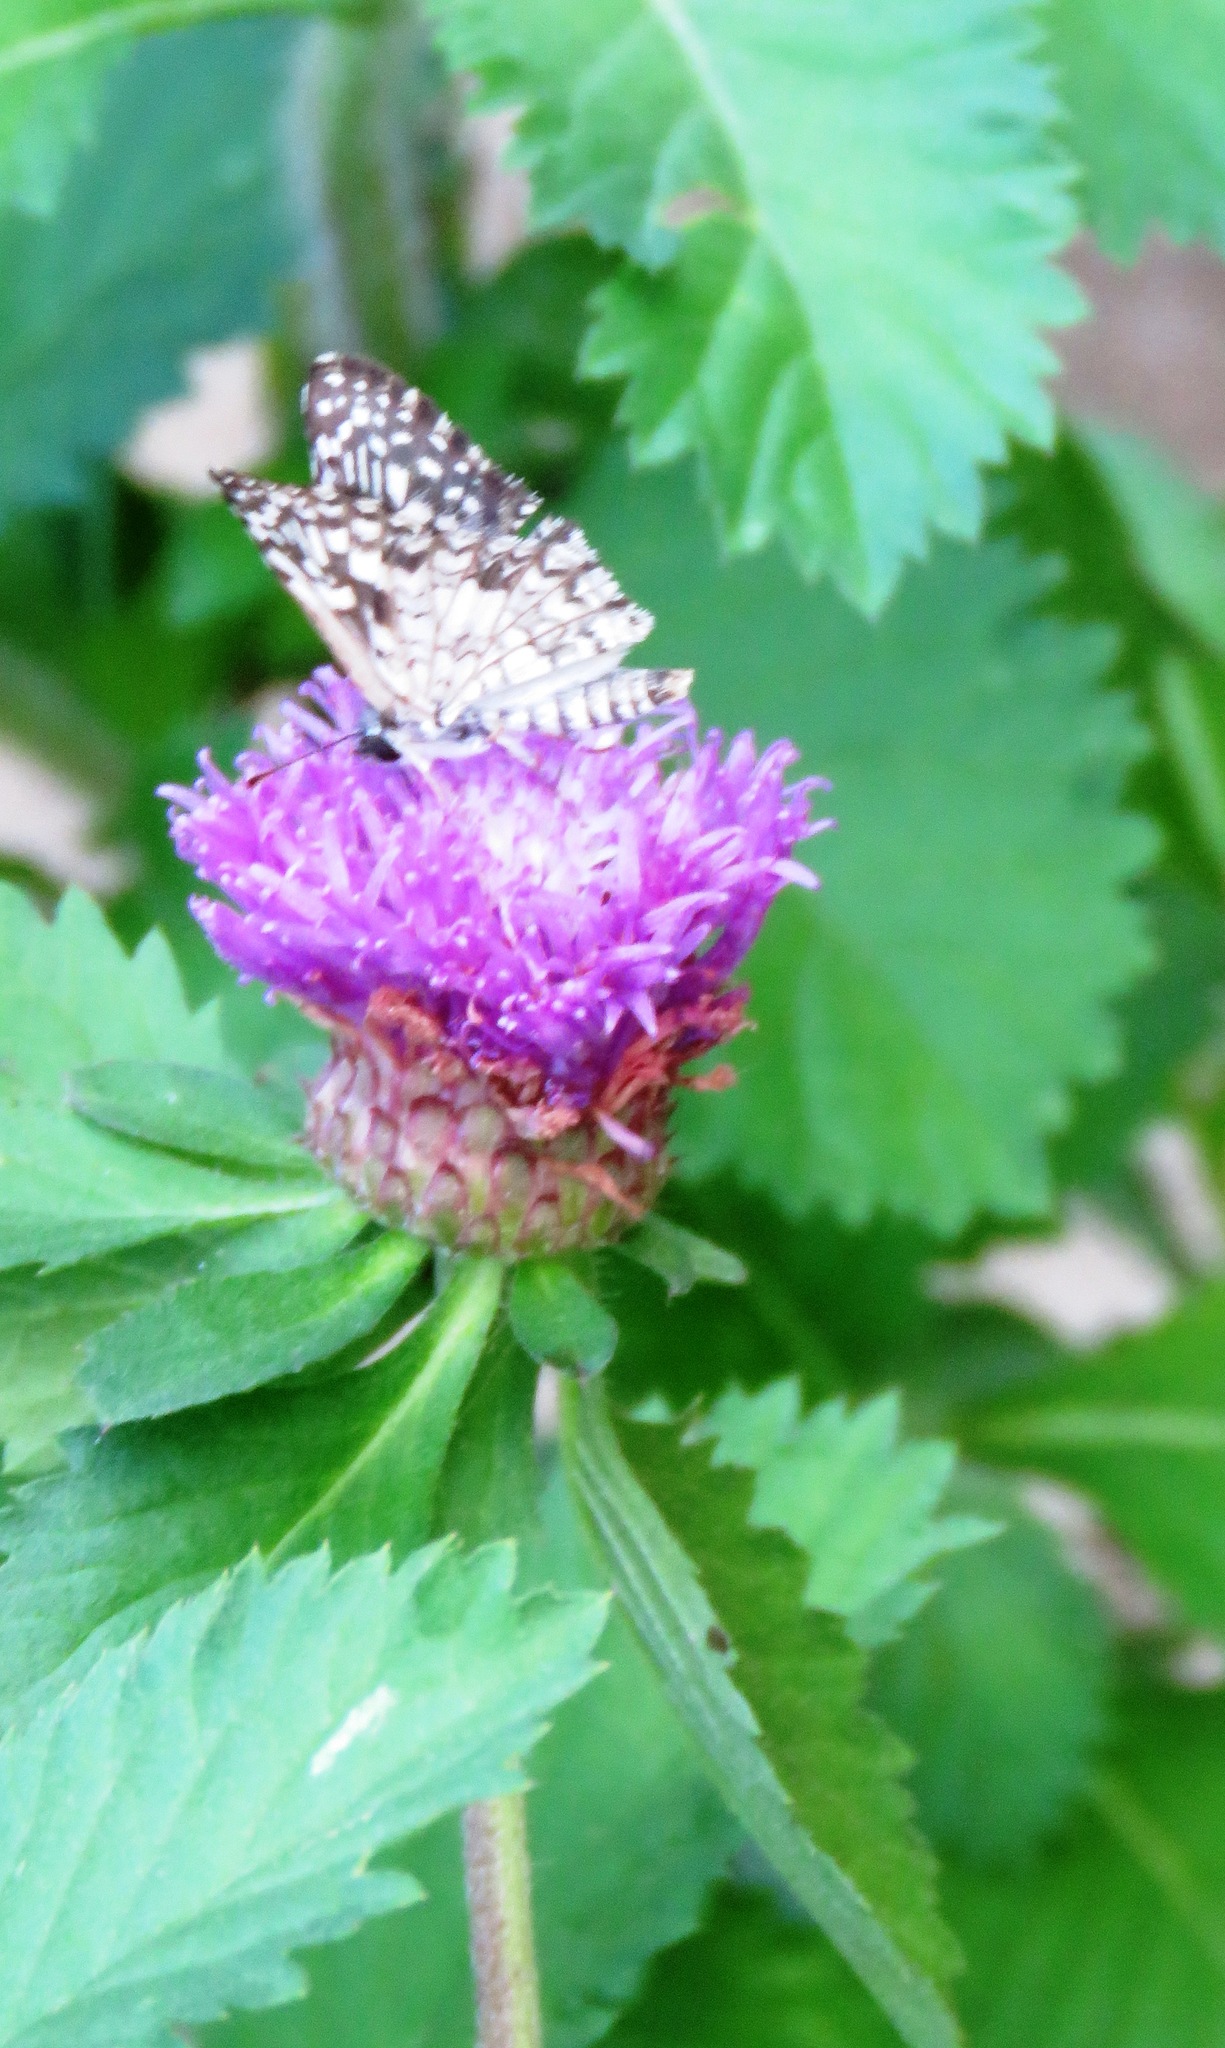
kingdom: Animalia
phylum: Arthropoda
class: Insecta
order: Lepidoptera
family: Hesperiidae
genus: Pyrgus
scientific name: Pyrgus oileus
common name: Tropical checkered-skipper
